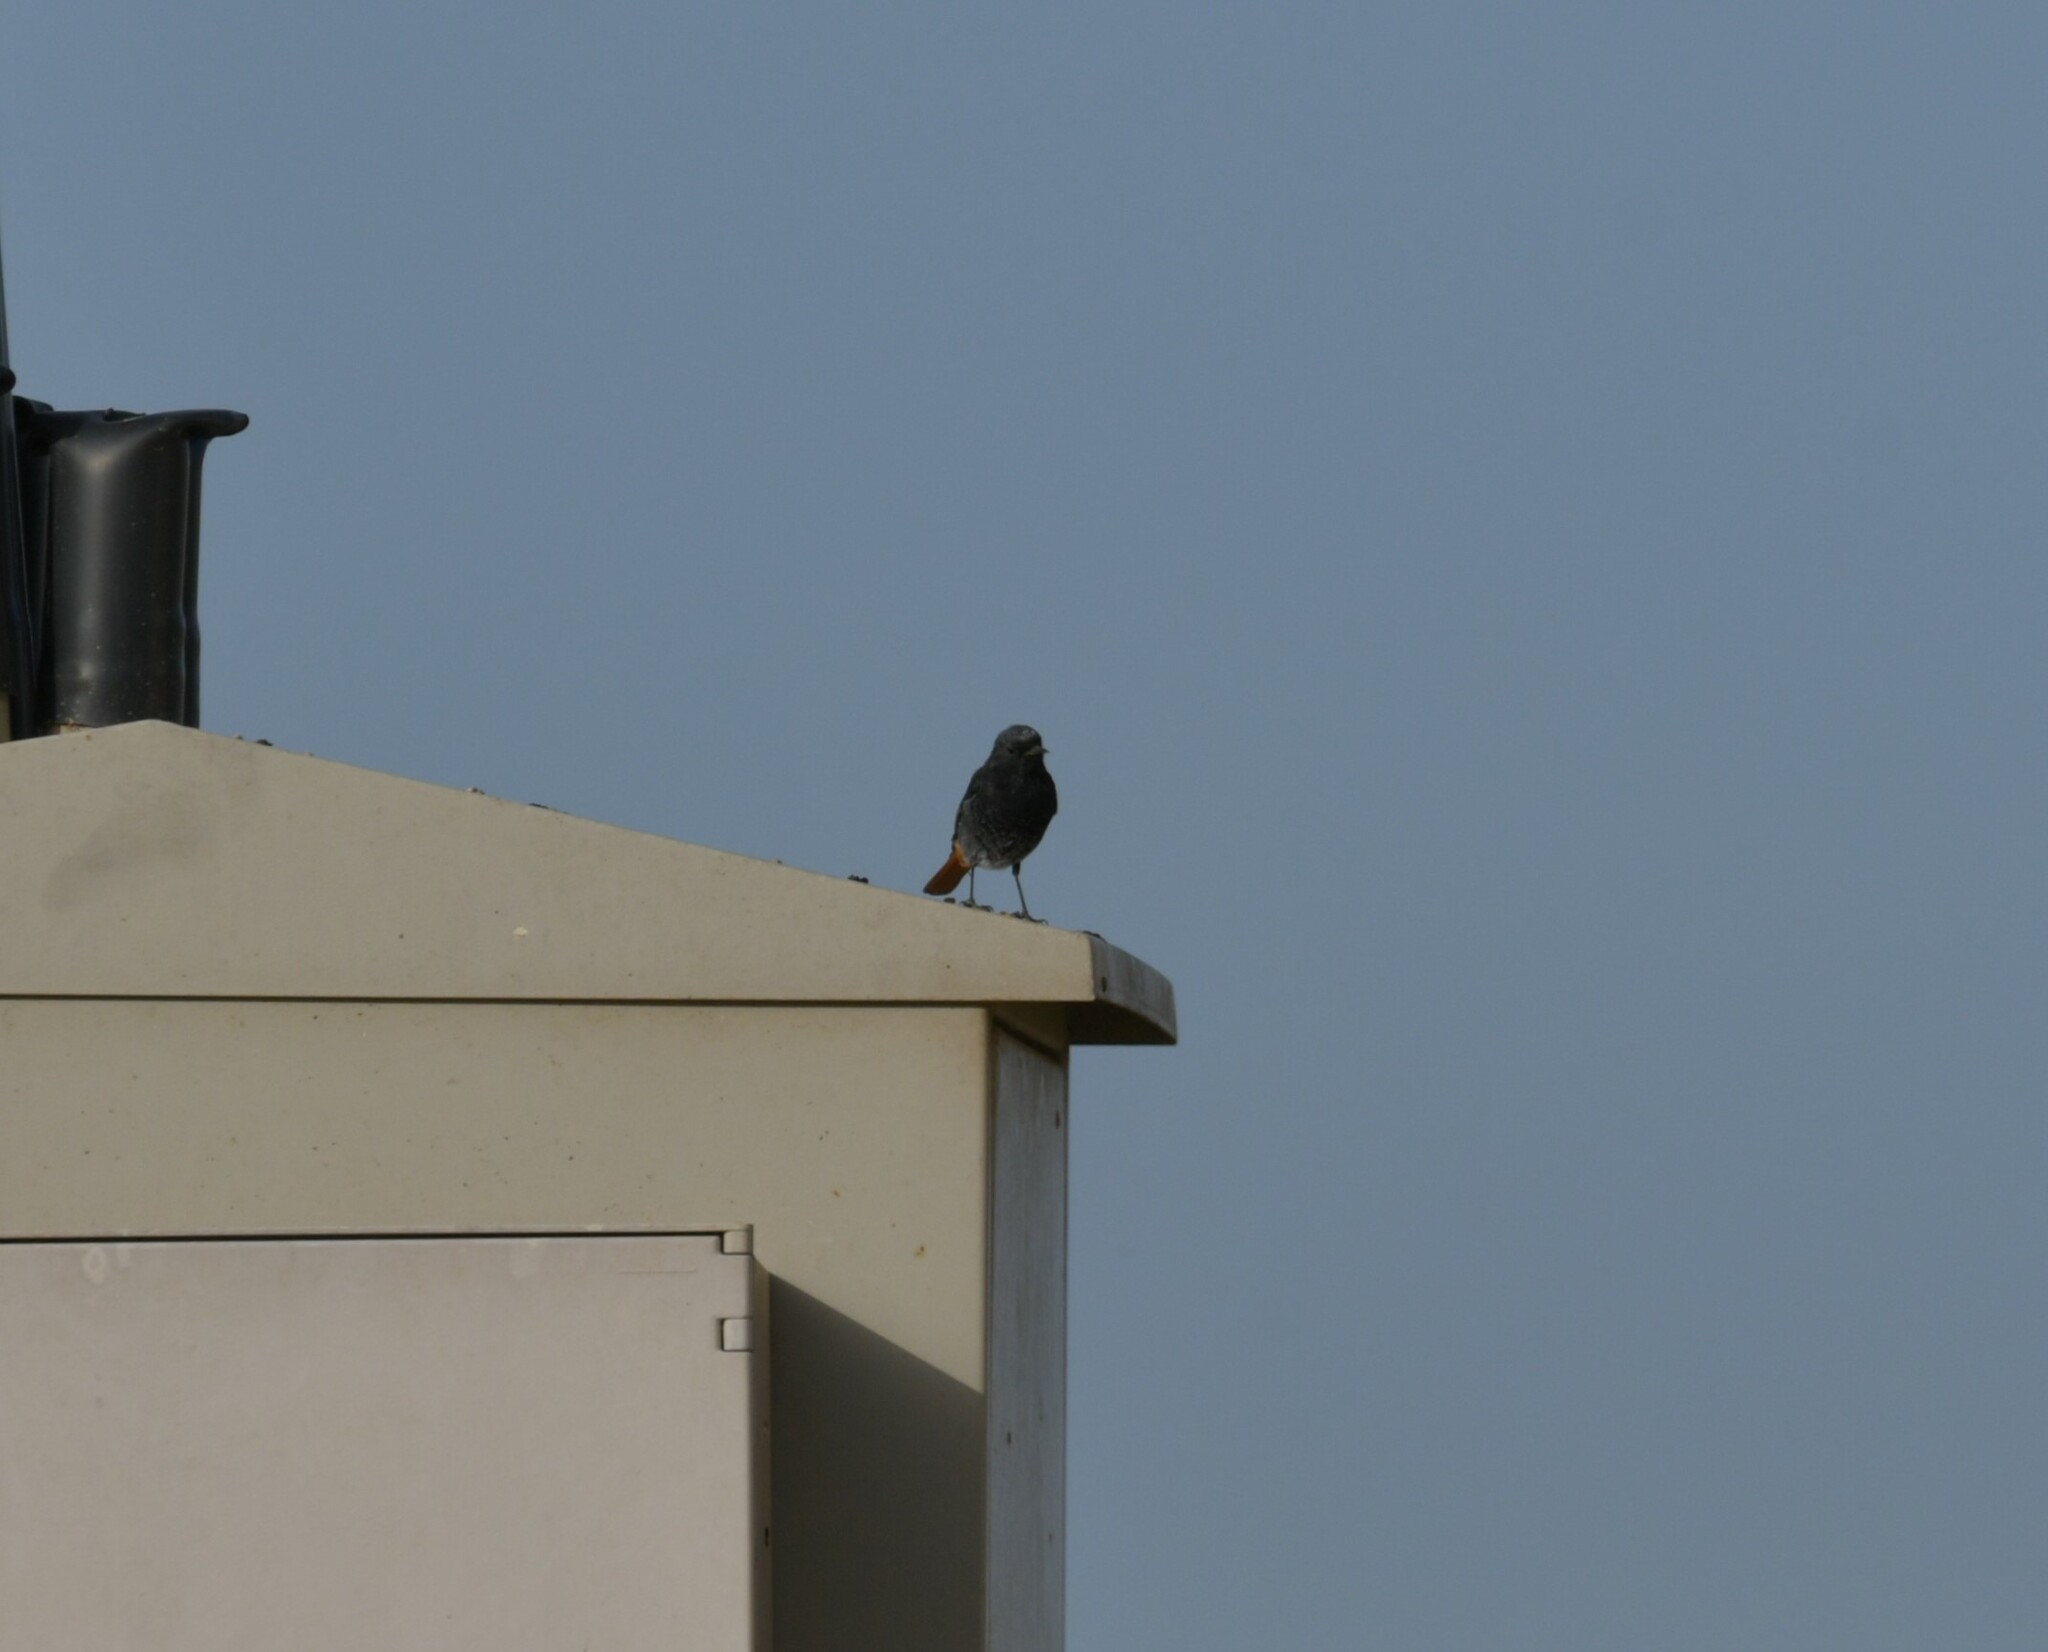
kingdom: Animalia
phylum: Chordata
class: Aves
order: Passeriformes
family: Muscicapidae
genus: Phoenicurus
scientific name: Phoenicurus ochruros
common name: Black redstart
